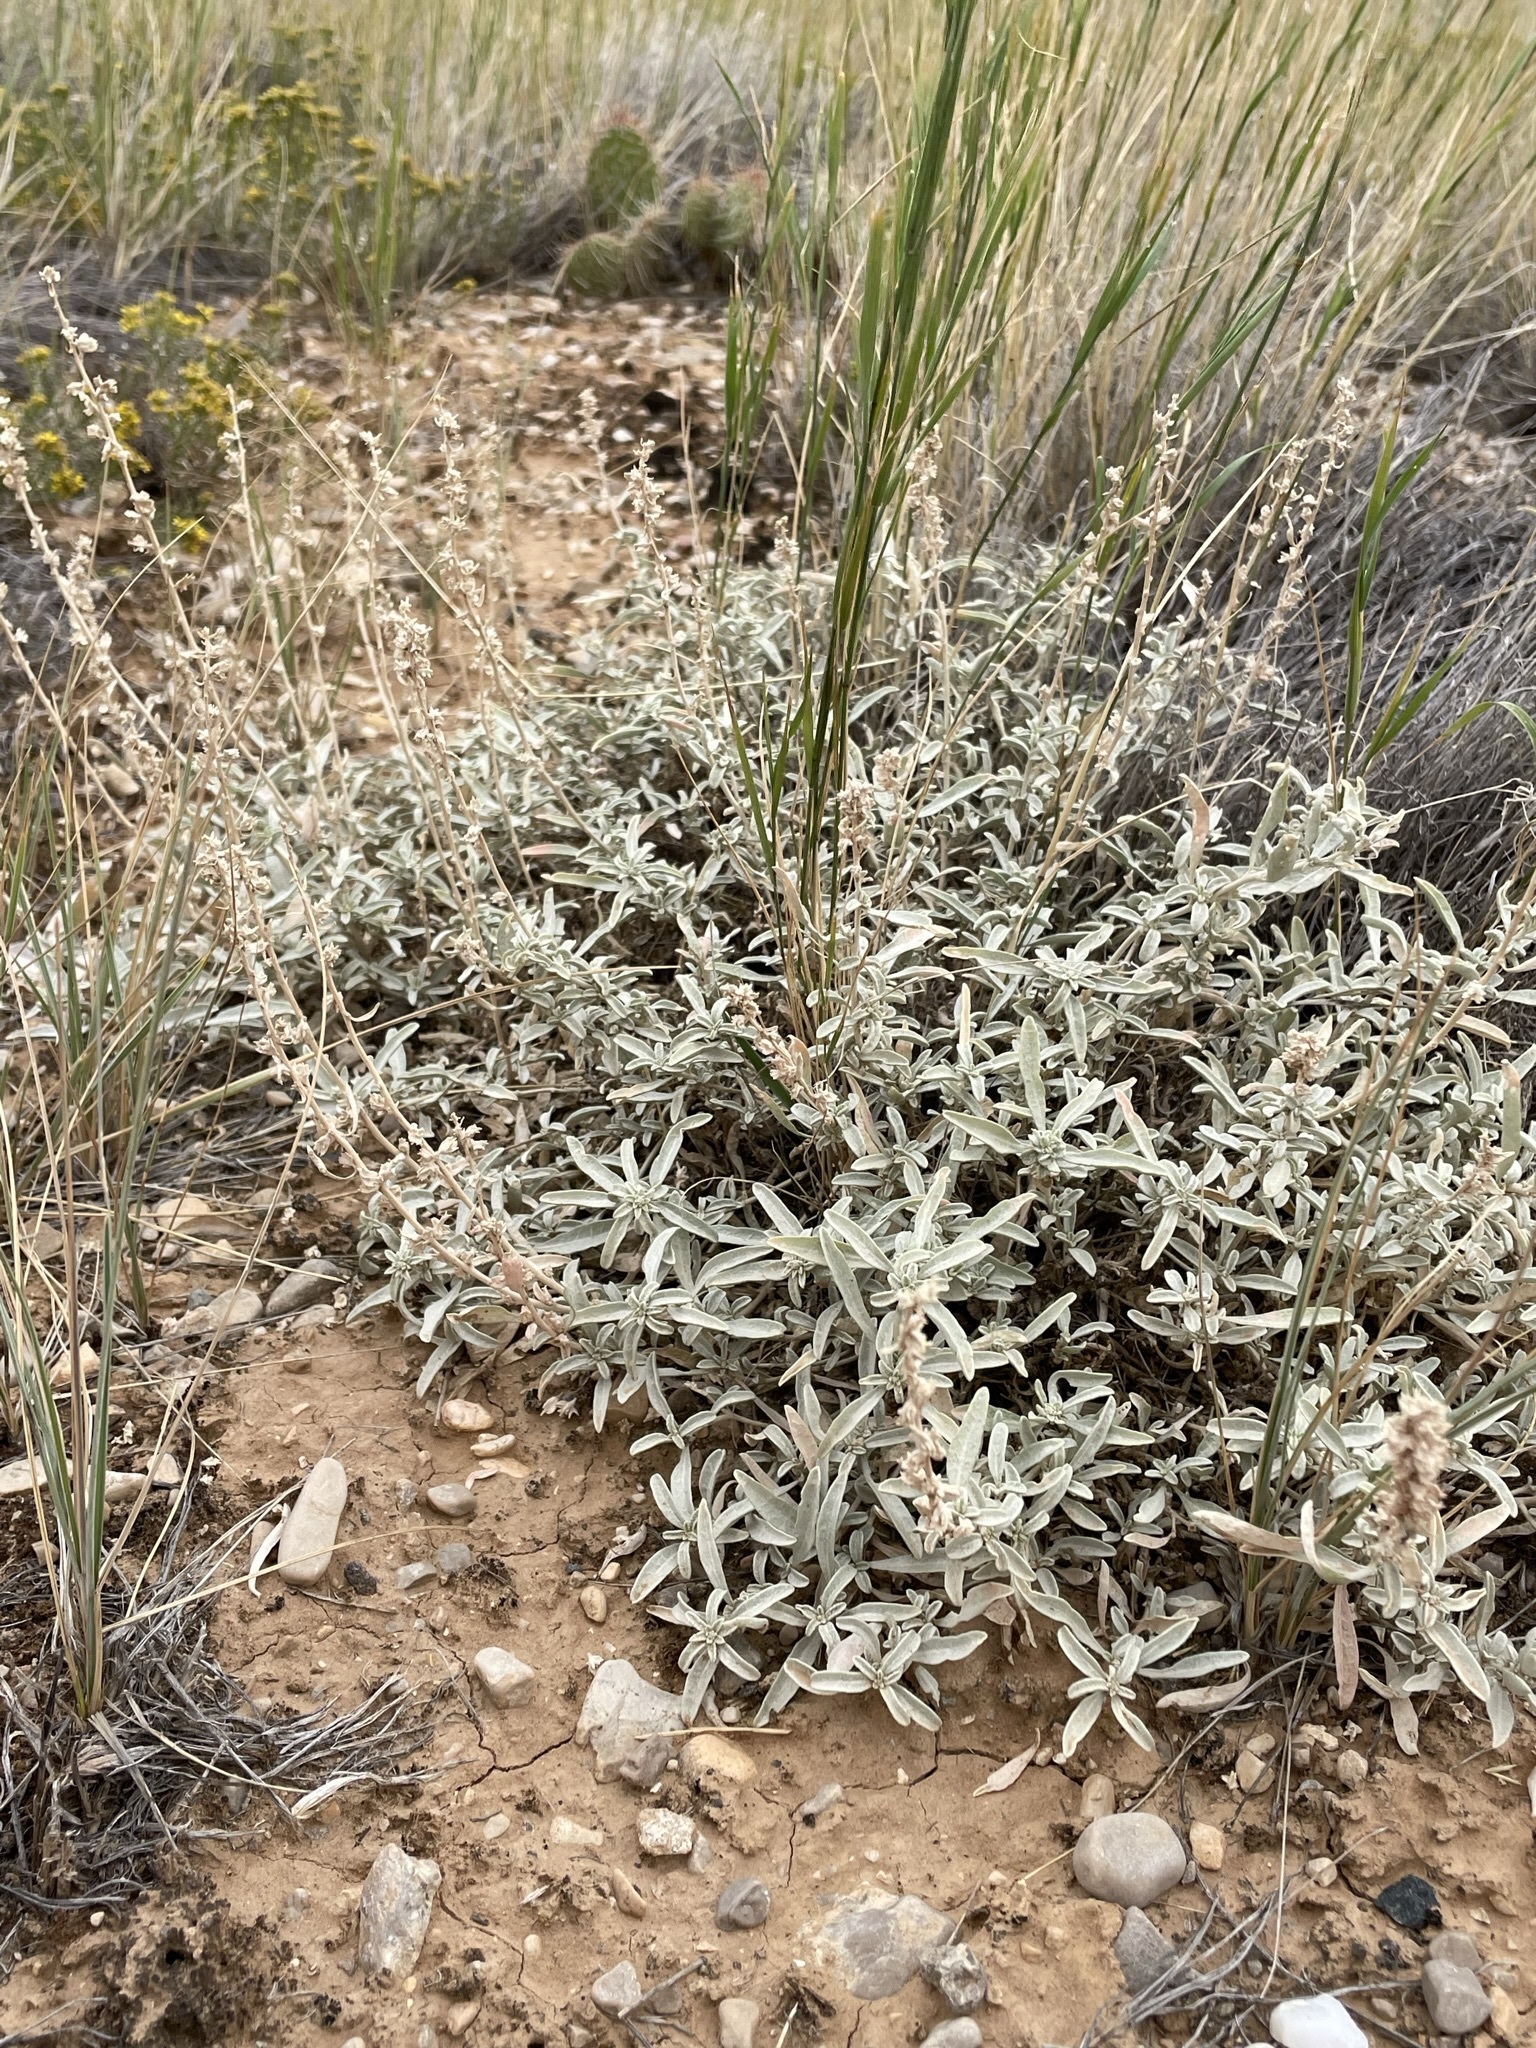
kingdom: Plantae
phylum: Tracheophyta
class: Magnoliopsida
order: Caryophyllales
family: Amaranthaceae
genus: Atriplex
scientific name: Atriplex gardneri
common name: Gardner's orache
